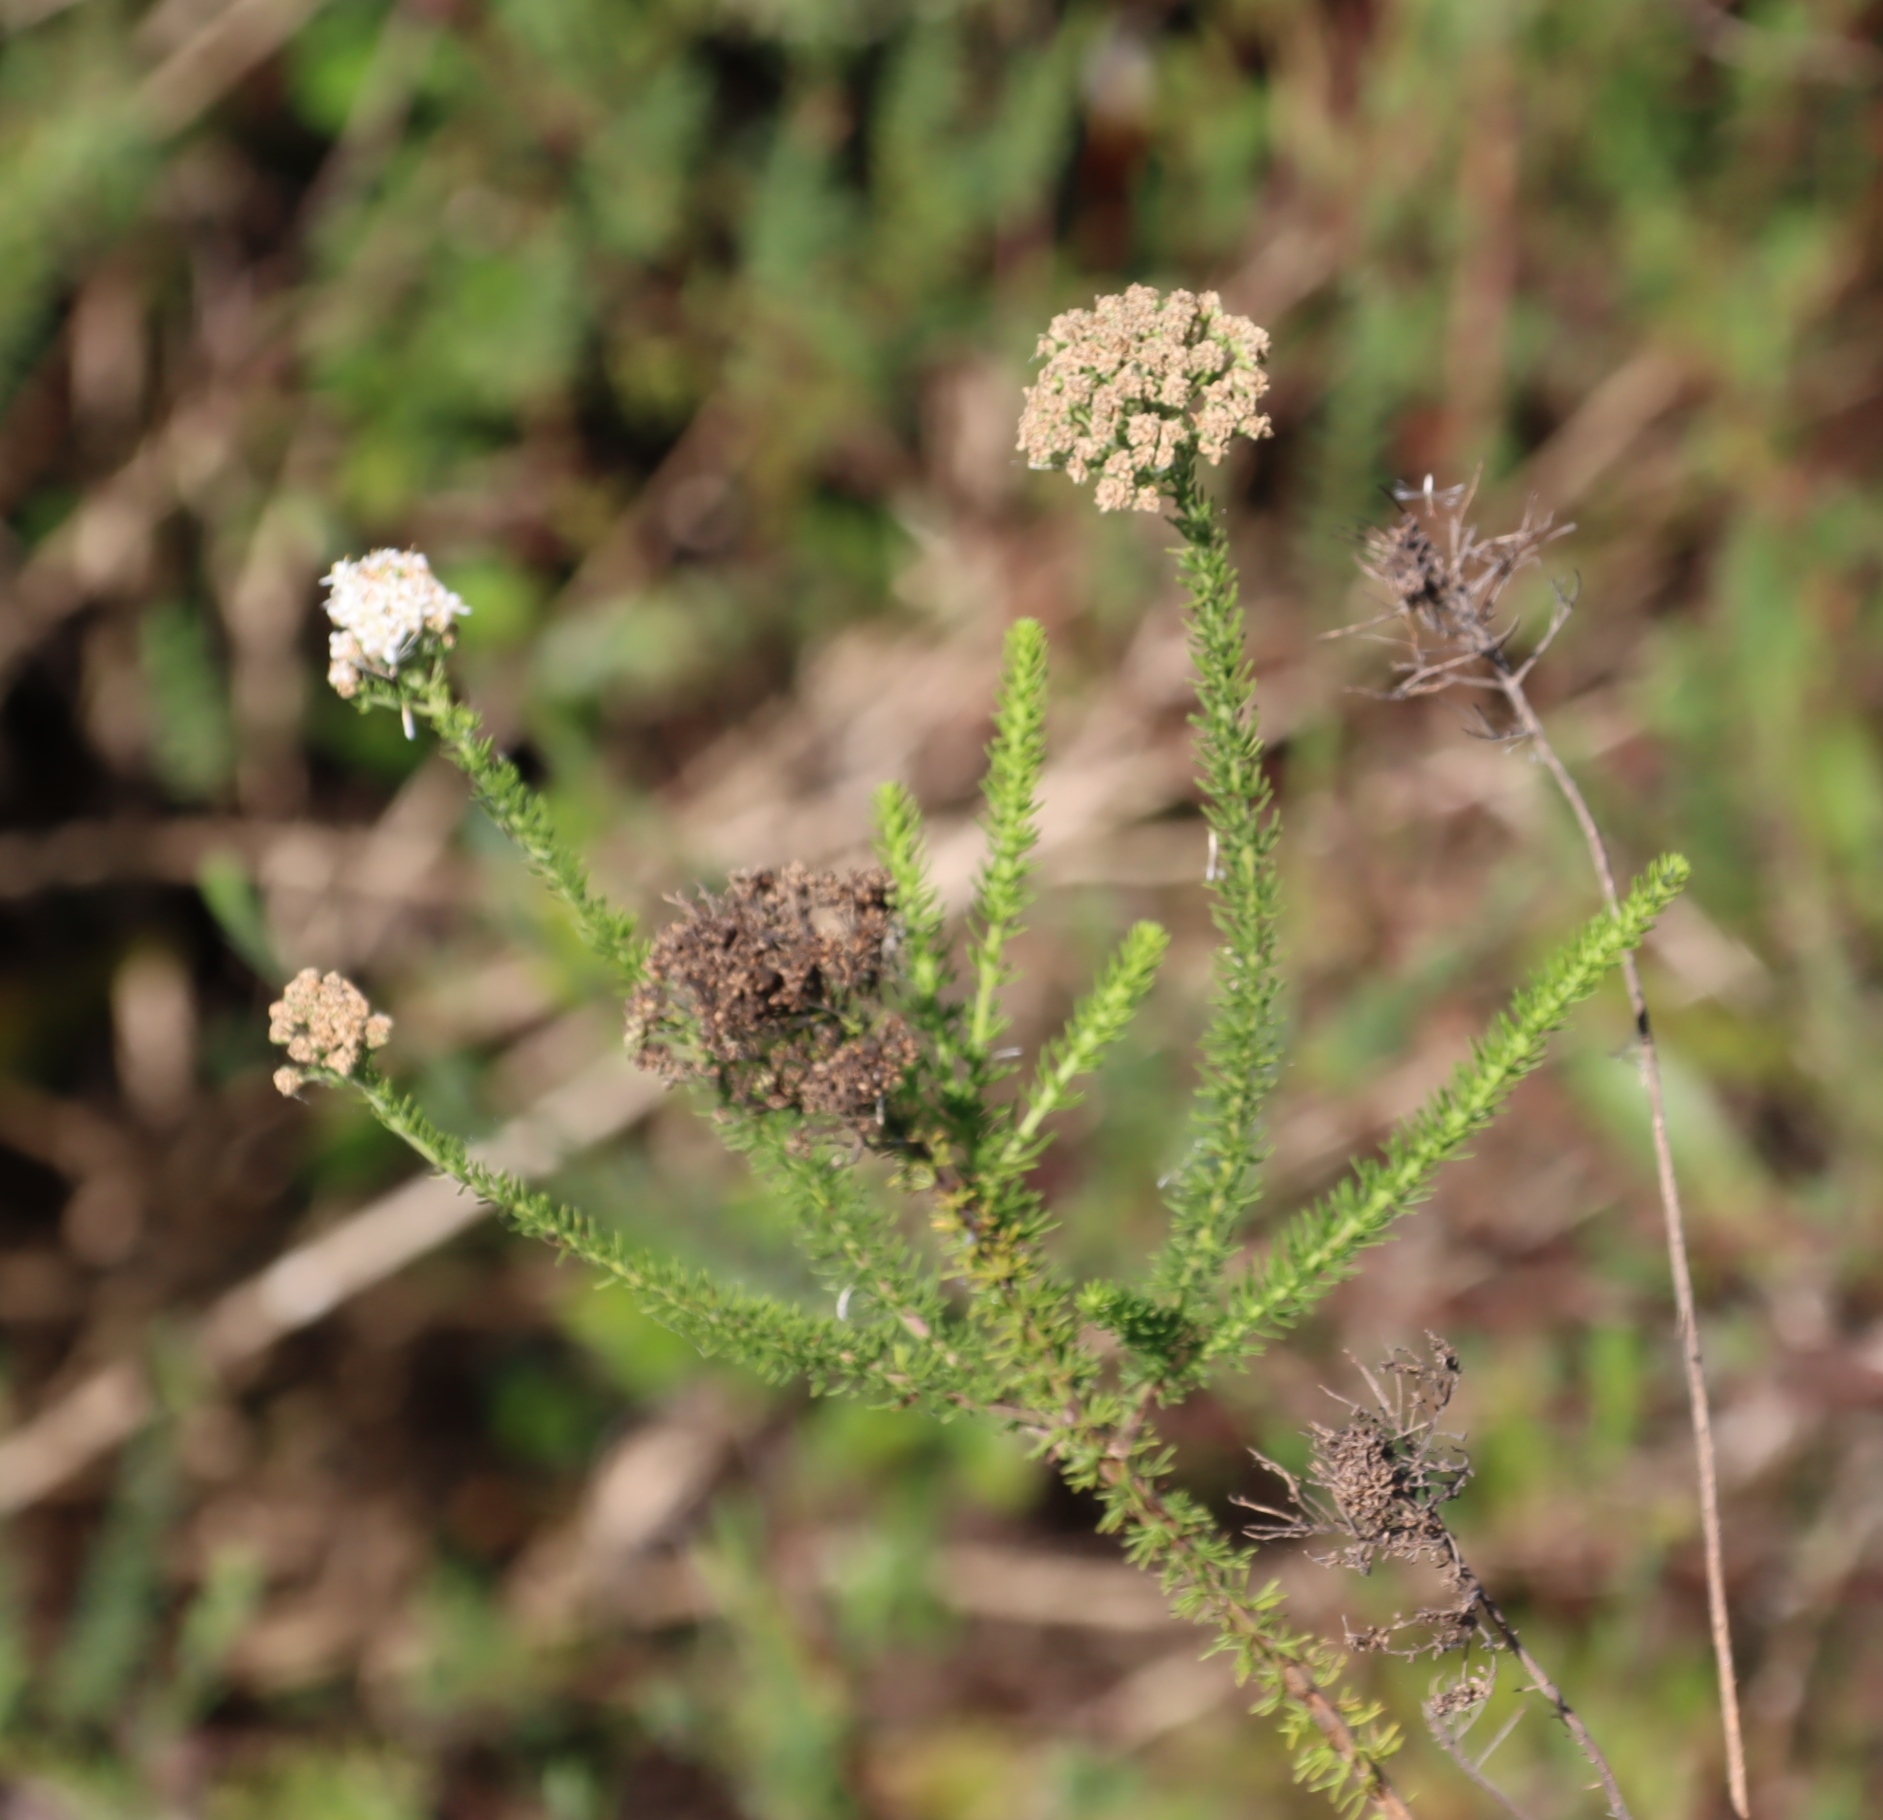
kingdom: Plantae
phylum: Tracheophyta
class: Magnoliopsida
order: Lamiales
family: Scrophulariaceae
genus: Selago
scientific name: Selago corymbosa
